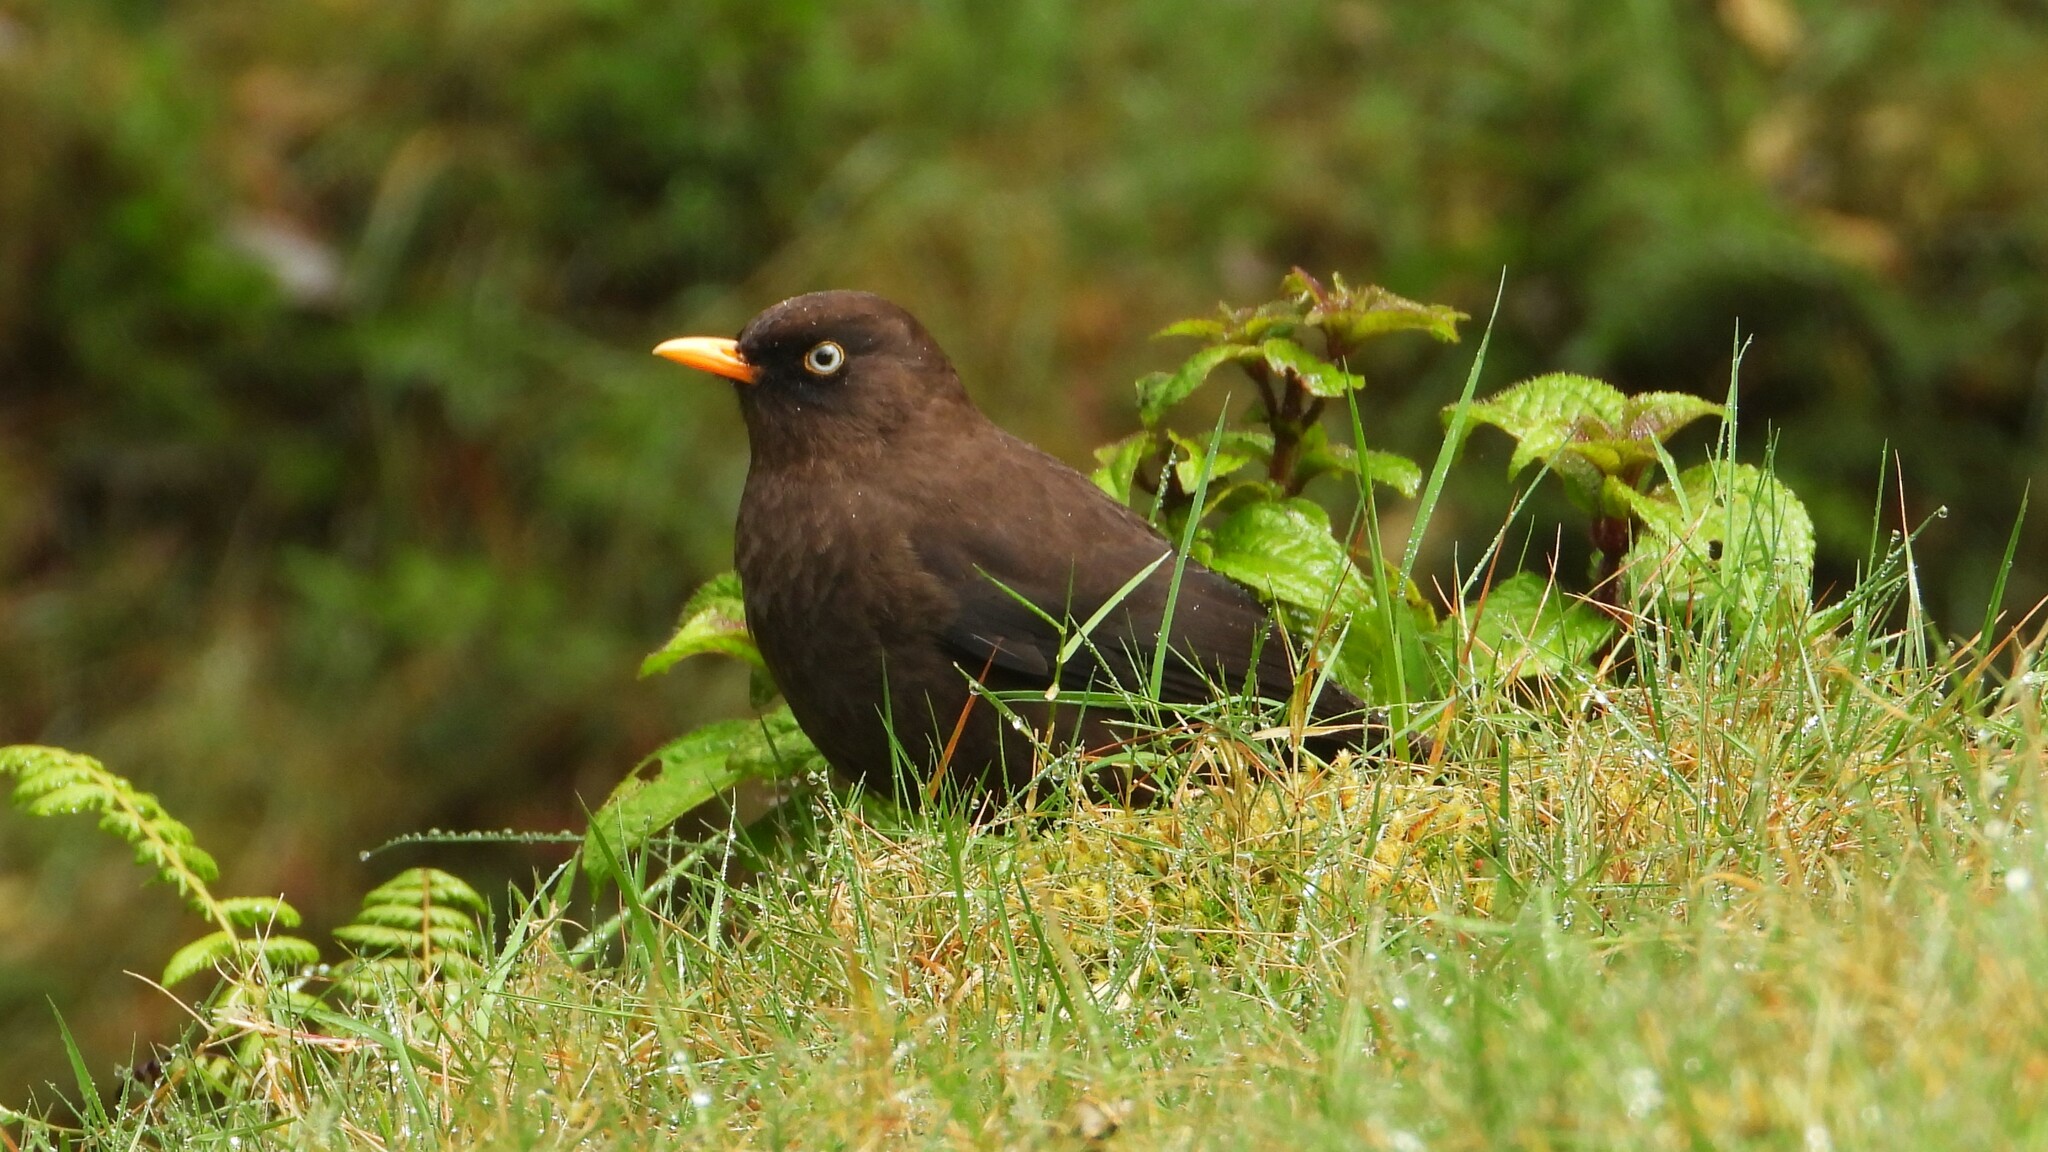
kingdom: Animalia
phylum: Chordata
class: Aves
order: Passeriformes
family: Turdidae
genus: Turdus
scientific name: Turdus nigrescens
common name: Sooty thrush
